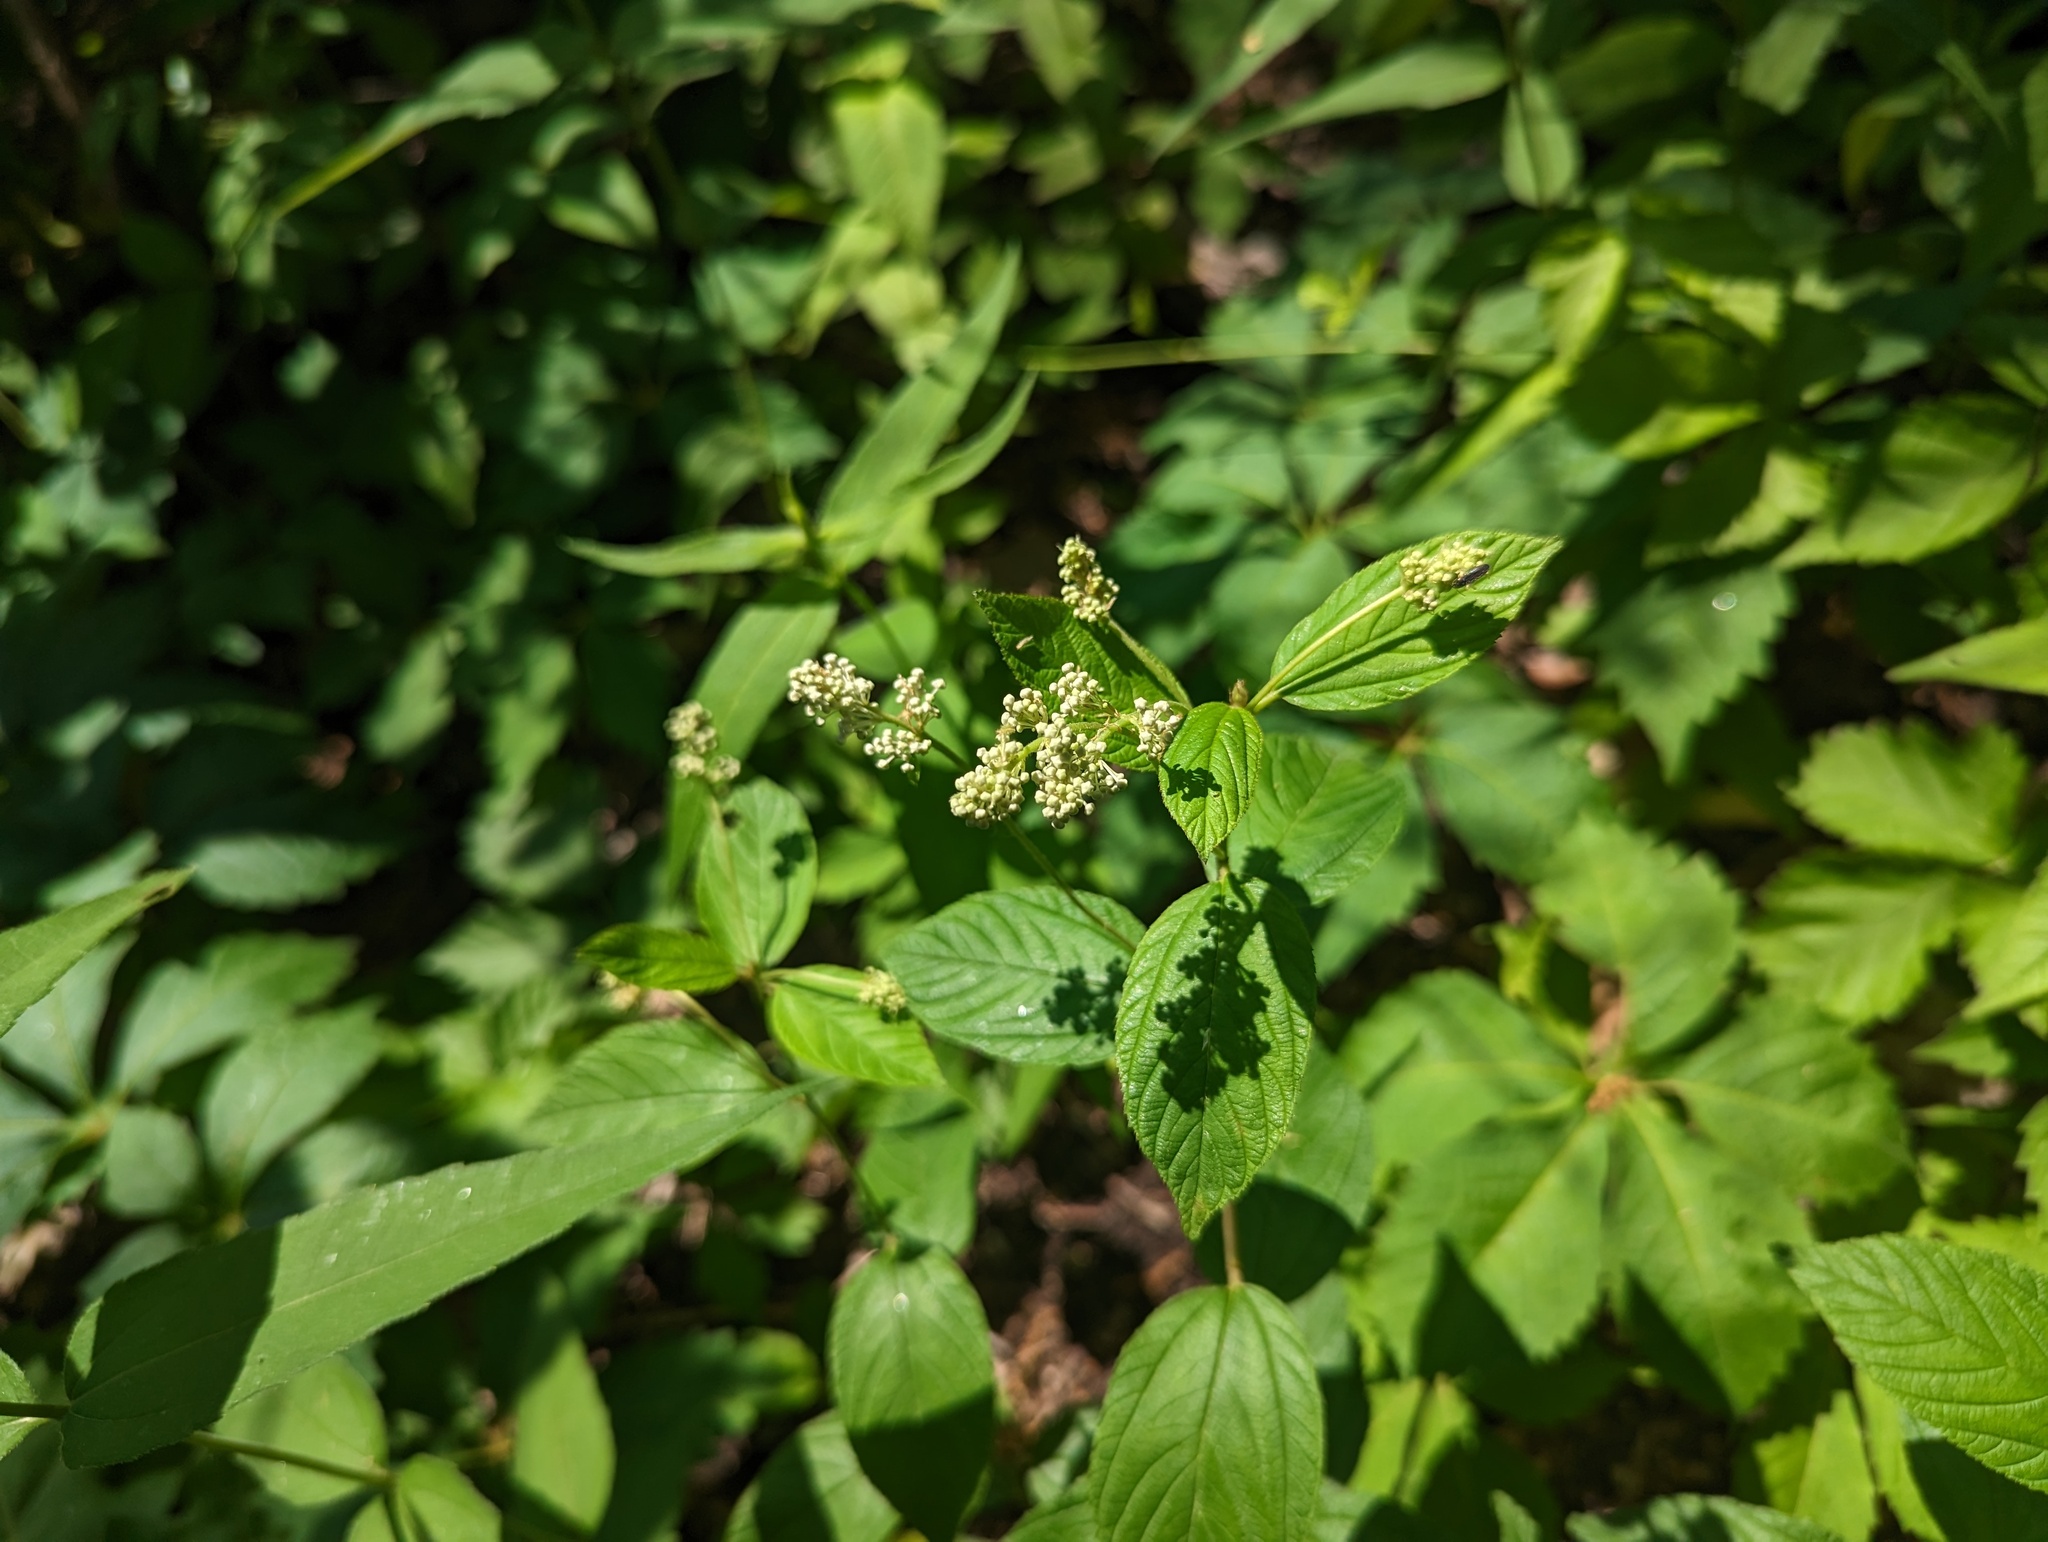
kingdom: Plantae
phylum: Tracheophyta
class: Magnoliopsida
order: Rosales
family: Rhamnaceae
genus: Ceanothus
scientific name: Ceanothus americanus
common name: Redroot
